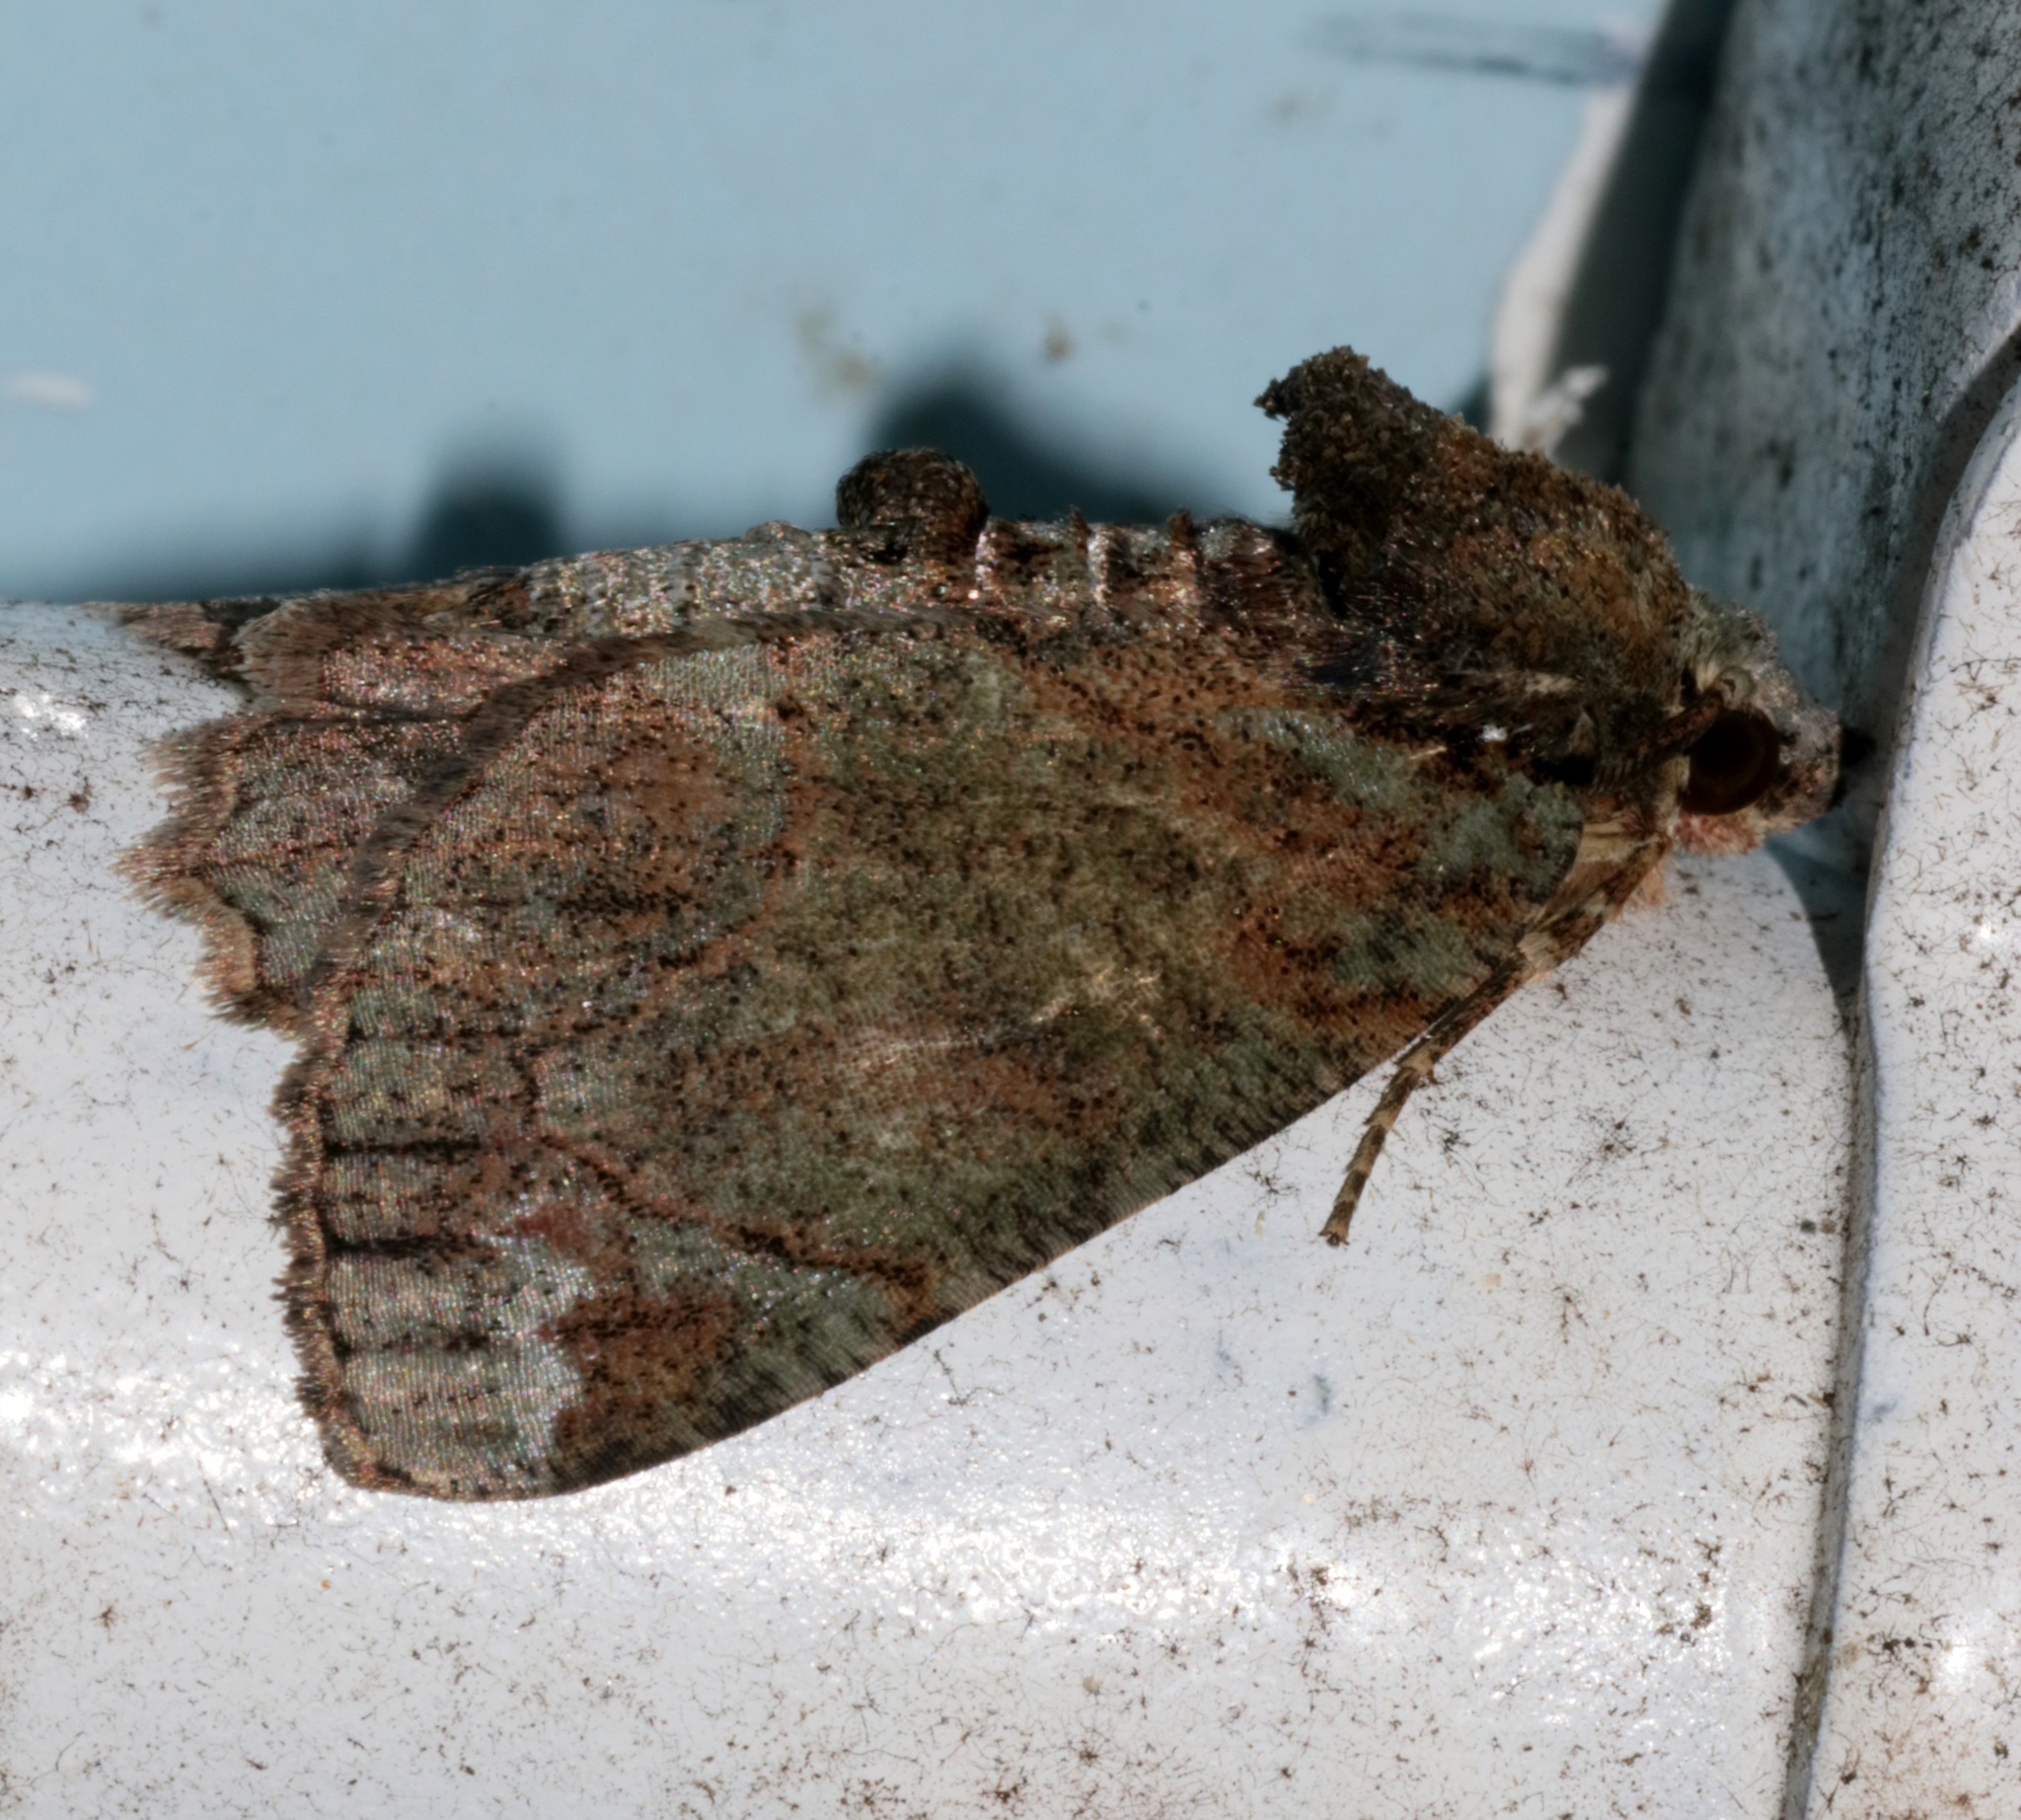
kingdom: Animalia
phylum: Arthropoda
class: Insecta
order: Lepidoptera
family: Geometridae
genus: Dindica
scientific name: Dindica olivacea
